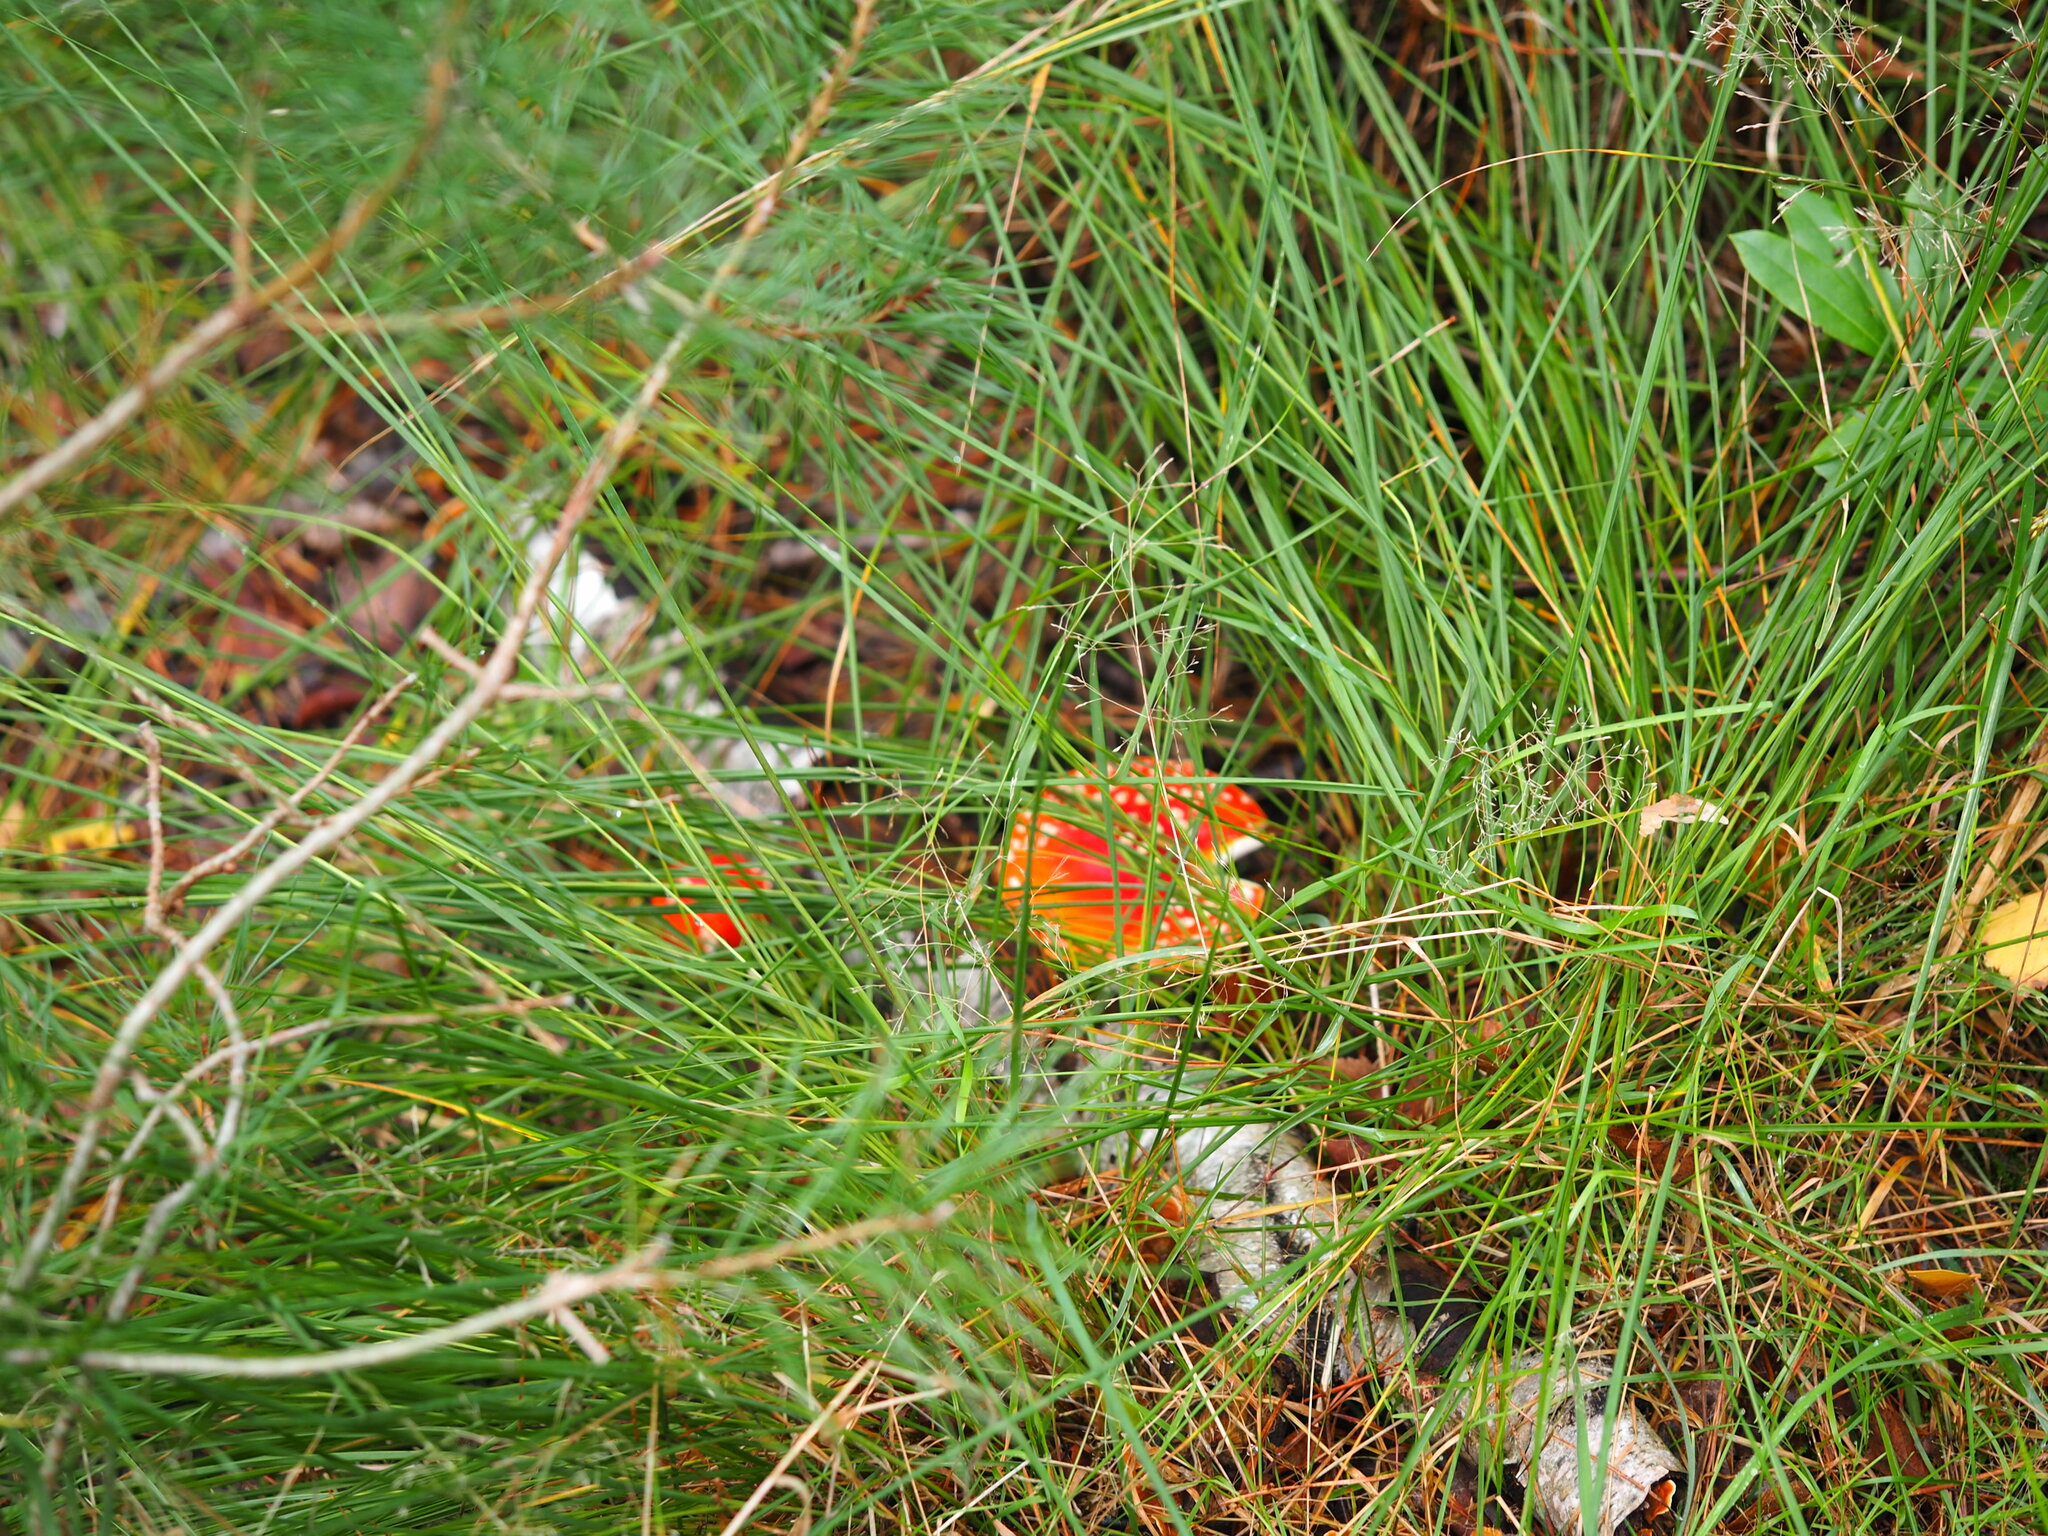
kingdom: Fungi
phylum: Basidiomycota
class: Agaricomycetes
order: Agaricales
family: Amanitaceae
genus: Amanita
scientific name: Amanita muscaria
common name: Fly agaric
